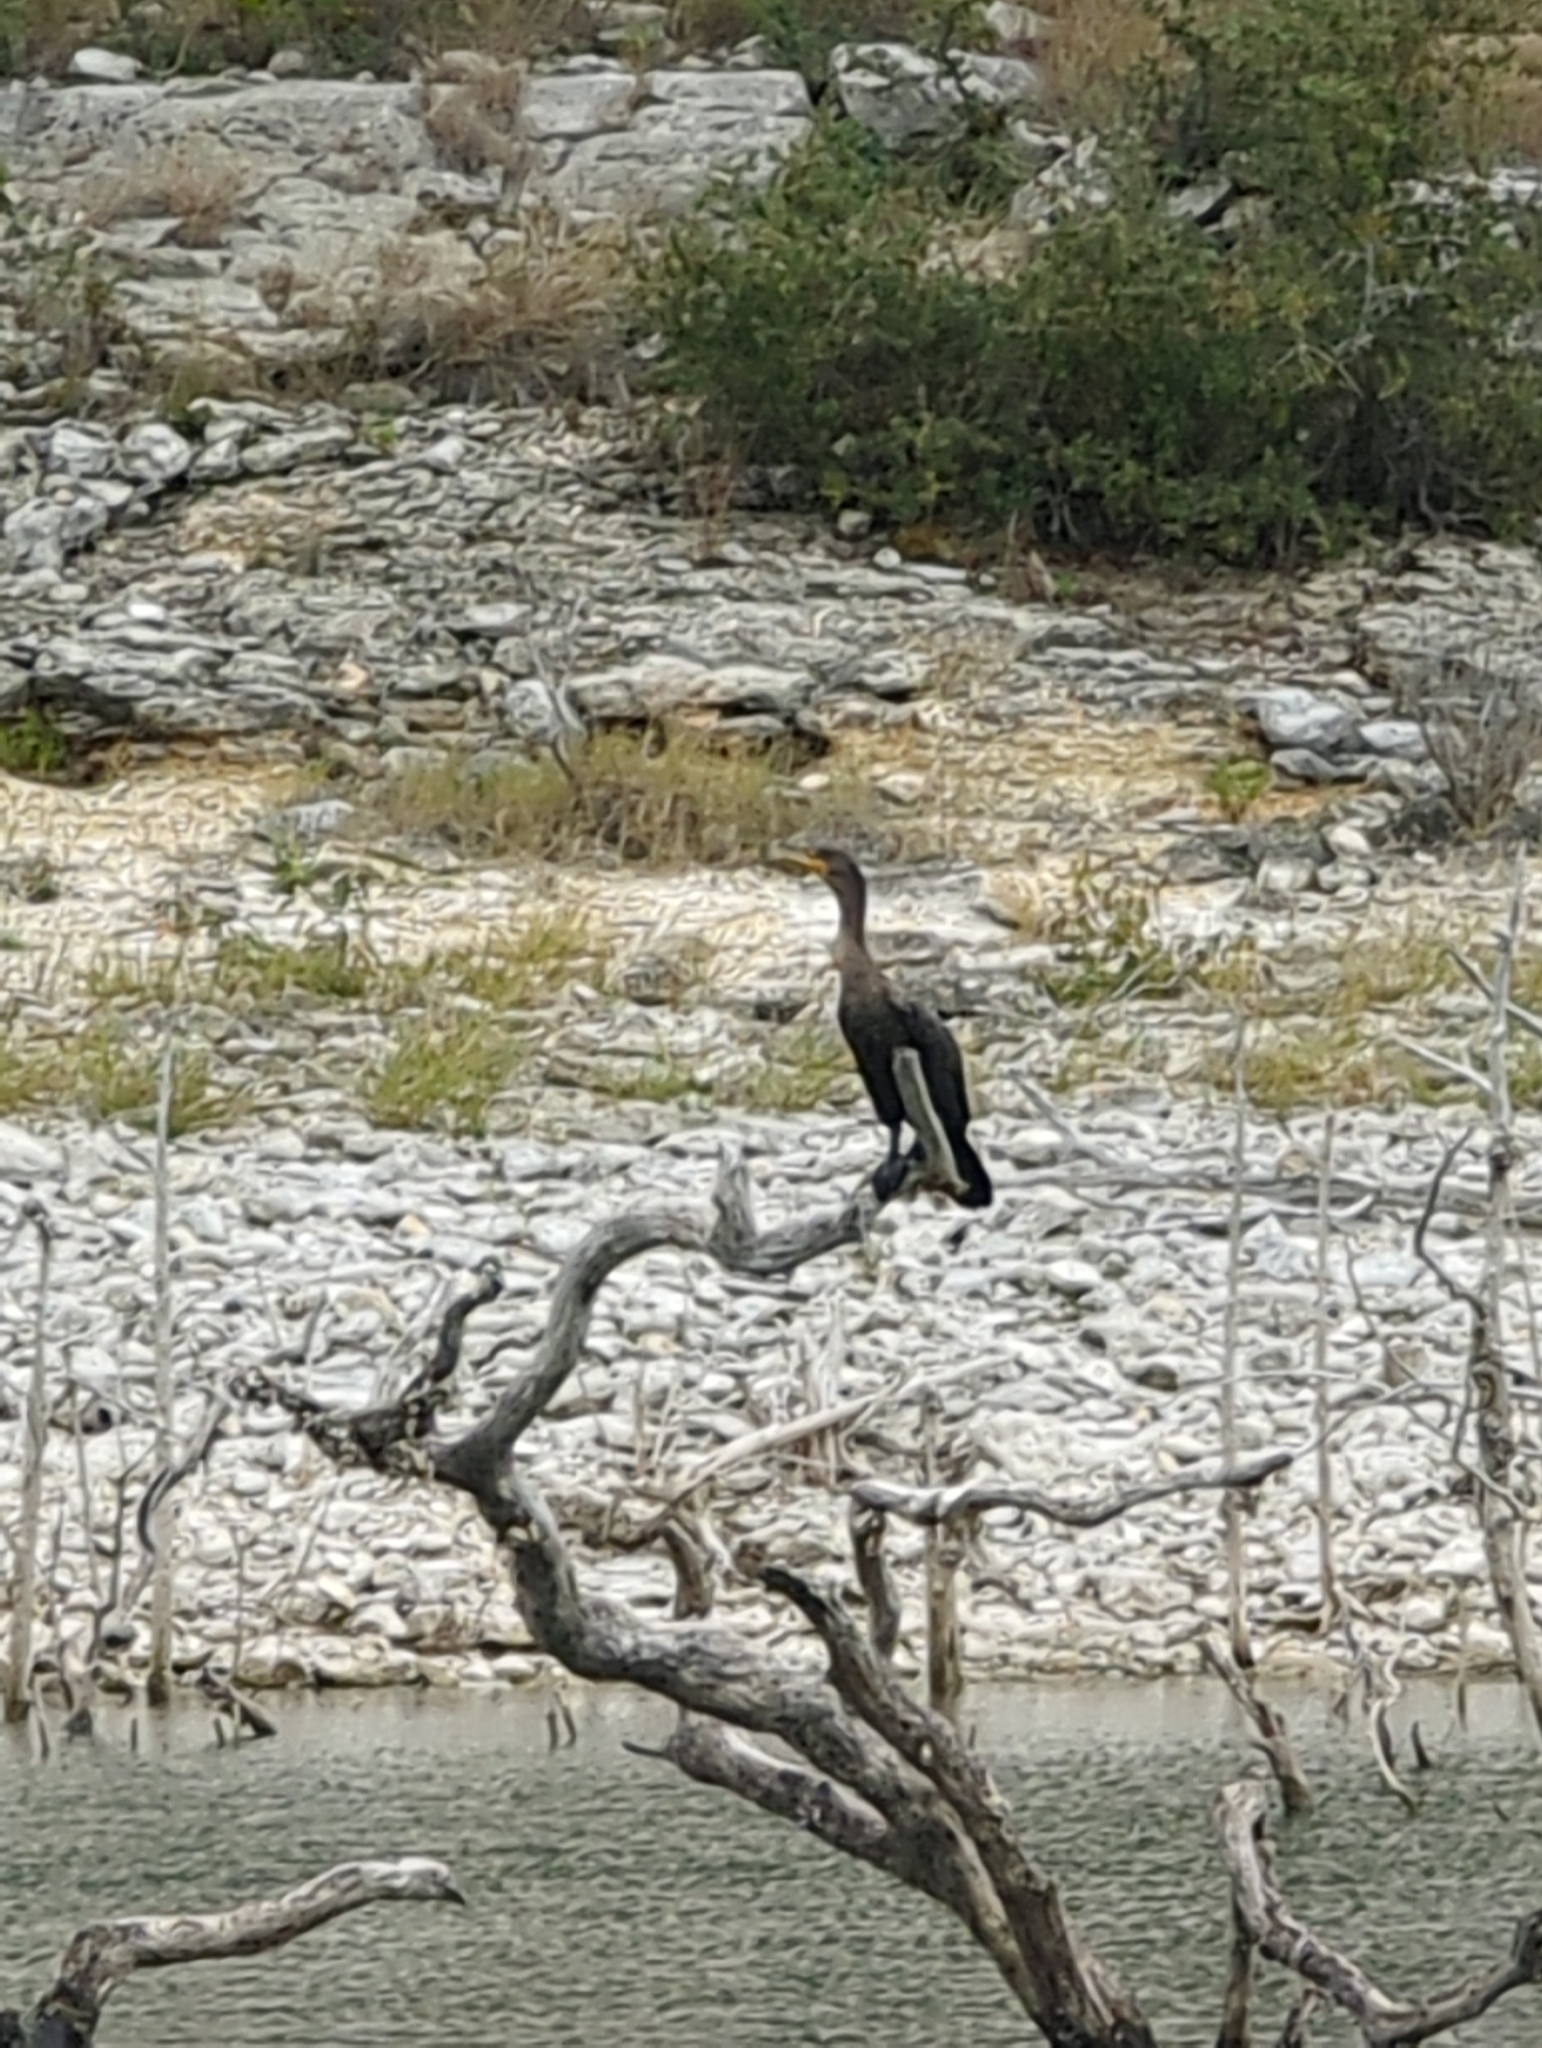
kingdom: Animalia
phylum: Chordata
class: Aves
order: Suliformes
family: Phalacrocoracidae
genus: Phalacrocorax
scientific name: Phalacrocorax auritus
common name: Double-crested cormorant
